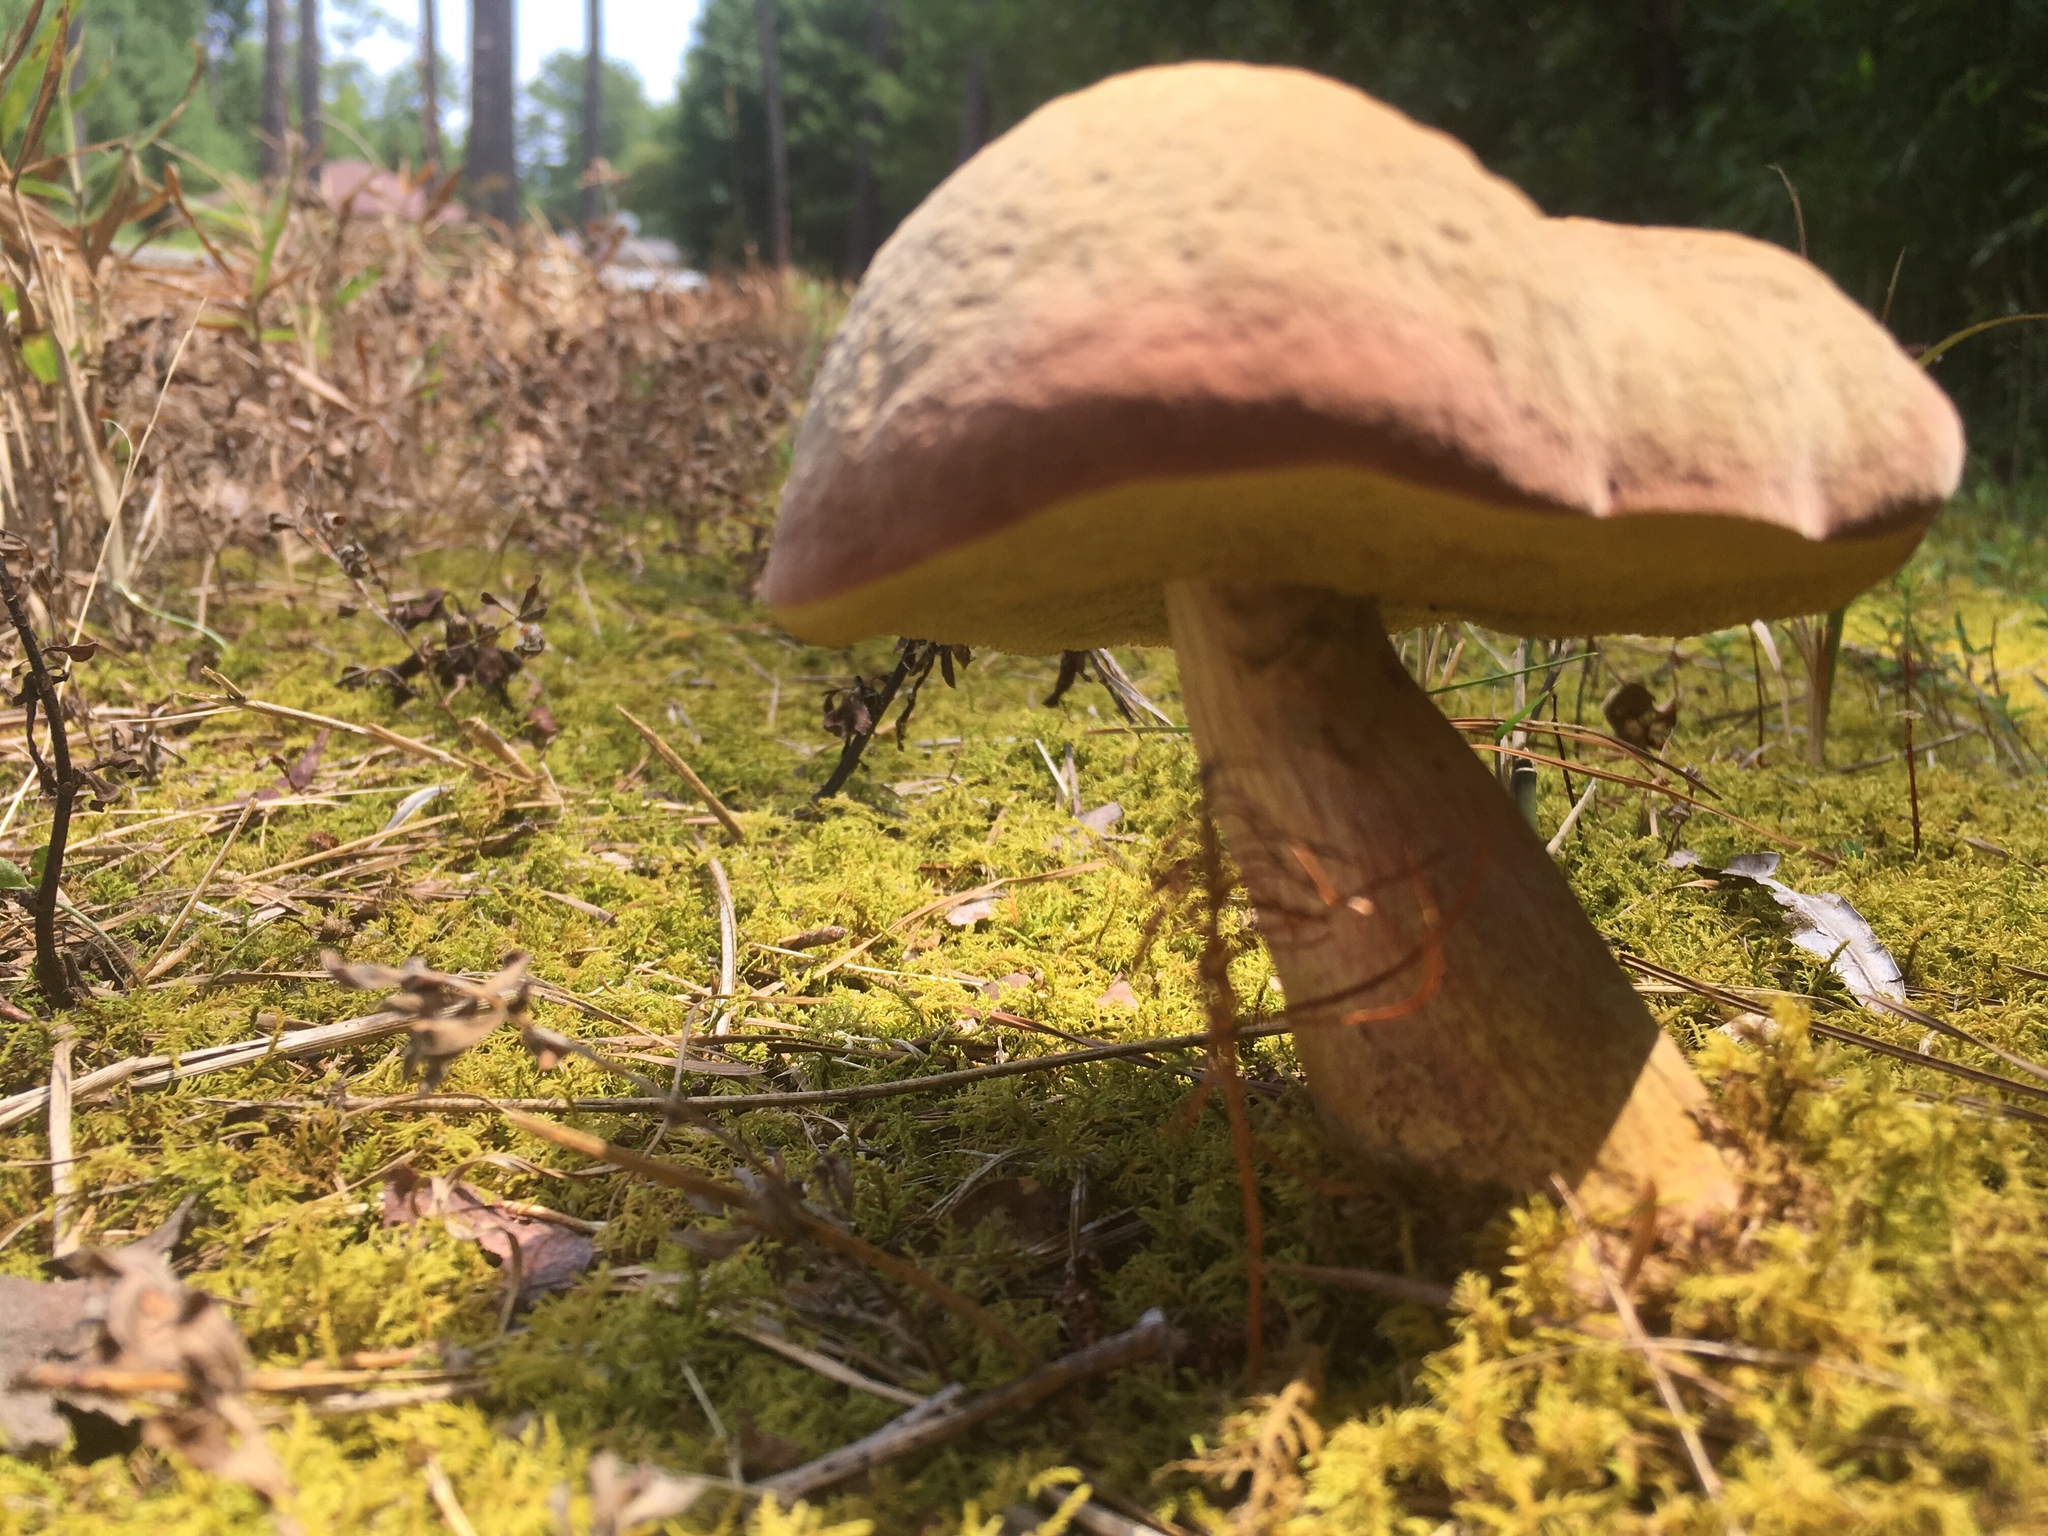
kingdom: Fungi
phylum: Basidiomycota
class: Agaricomycetes
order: Boletales
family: Boletaceae
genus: Boletus
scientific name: Boletus edulis
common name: Cep
